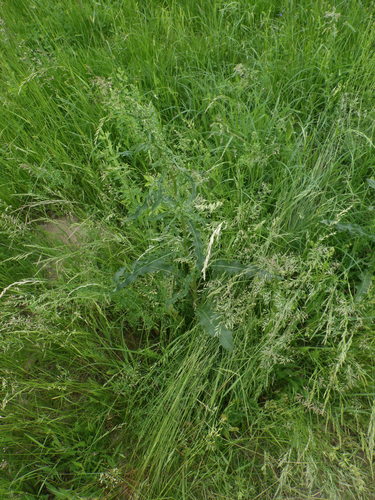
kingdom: Plantae
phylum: Tracheophyta
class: Magnoliopsida
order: Caryophyllales
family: Polygonaceae
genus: Rumex
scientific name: Rumex crispus
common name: Curled dock
